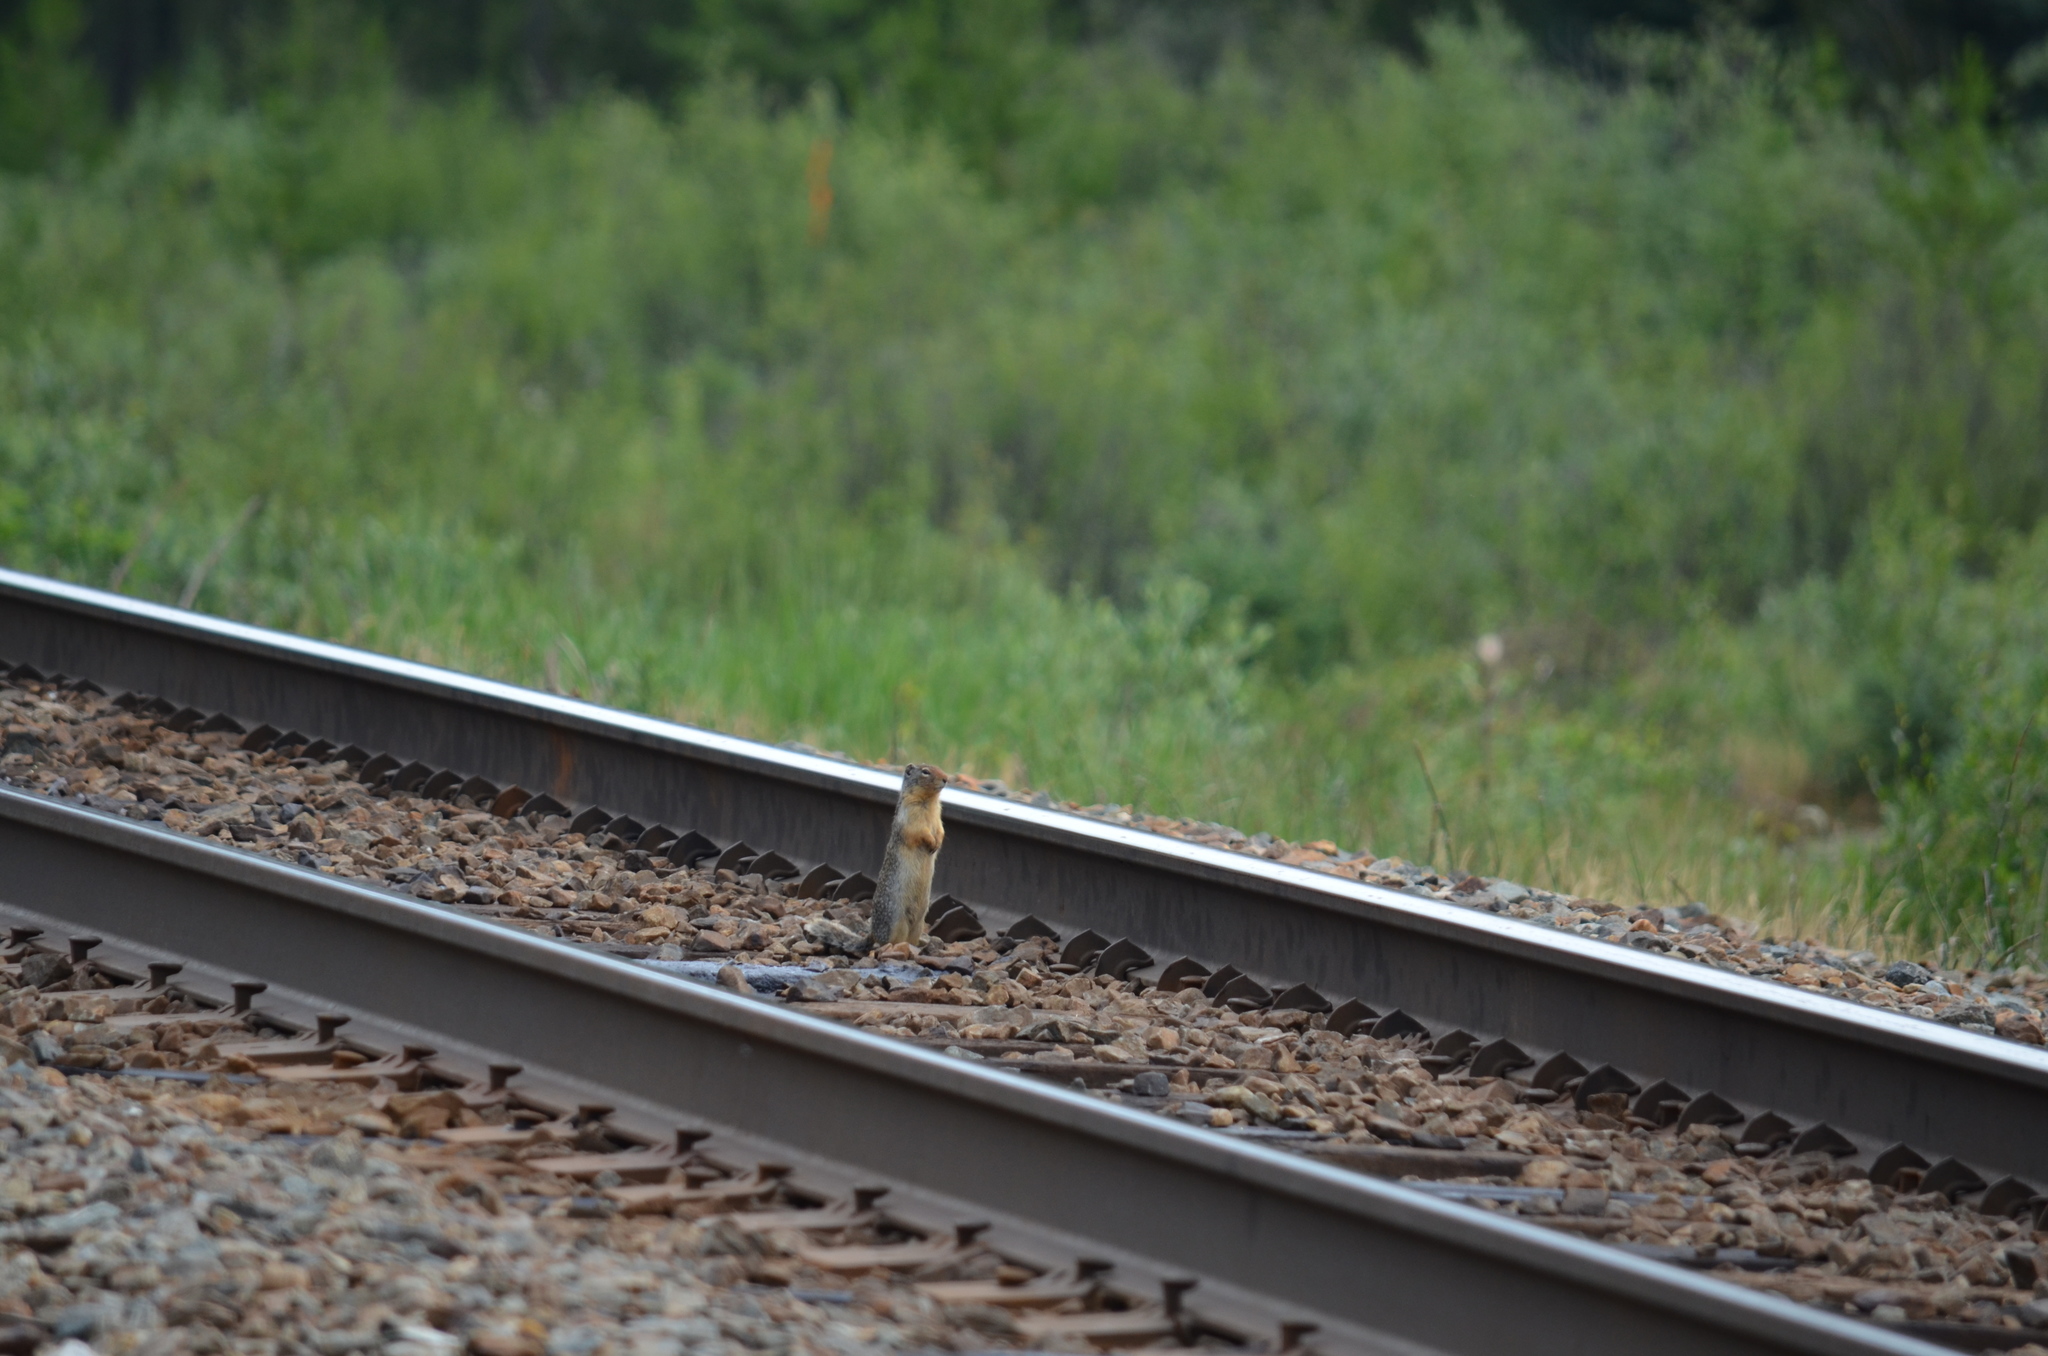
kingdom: Animalia
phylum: Chordata
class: Mammalia
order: Rodentia
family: Sciuridae
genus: Urocitellus
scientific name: Urocitellus columbianus
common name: Columbian ground squirrel
